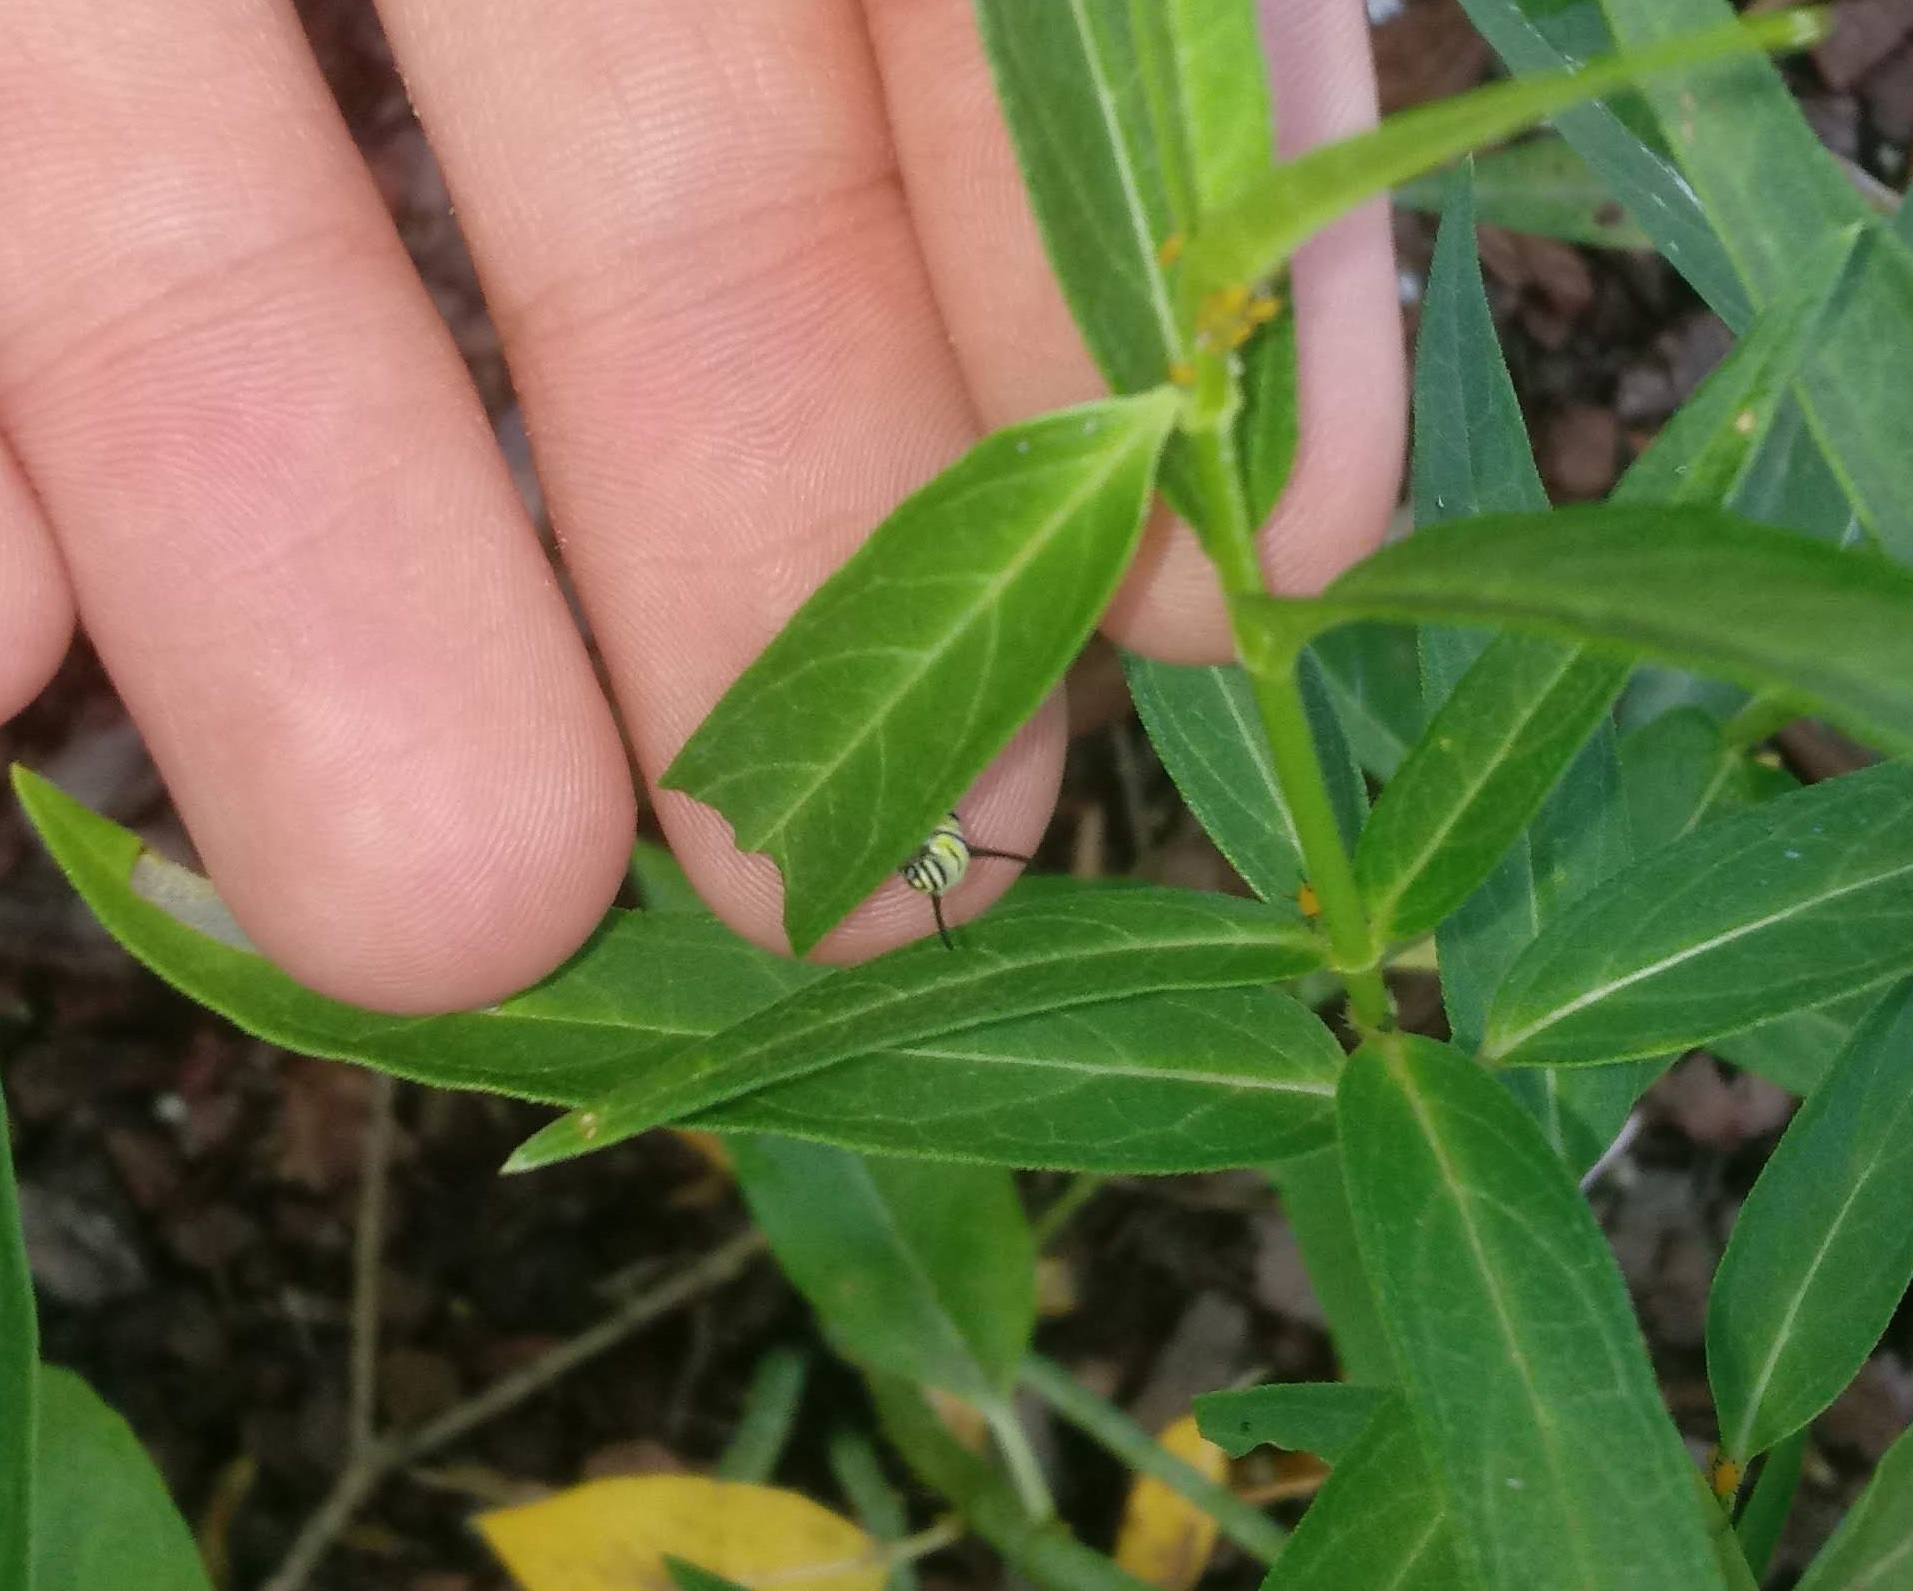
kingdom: Animalia
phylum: Arthropoda
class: Insecta
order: Lepidoptera
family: Nymphalidae
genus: Danaus
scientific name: Danaus plexippus
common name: Monarch
